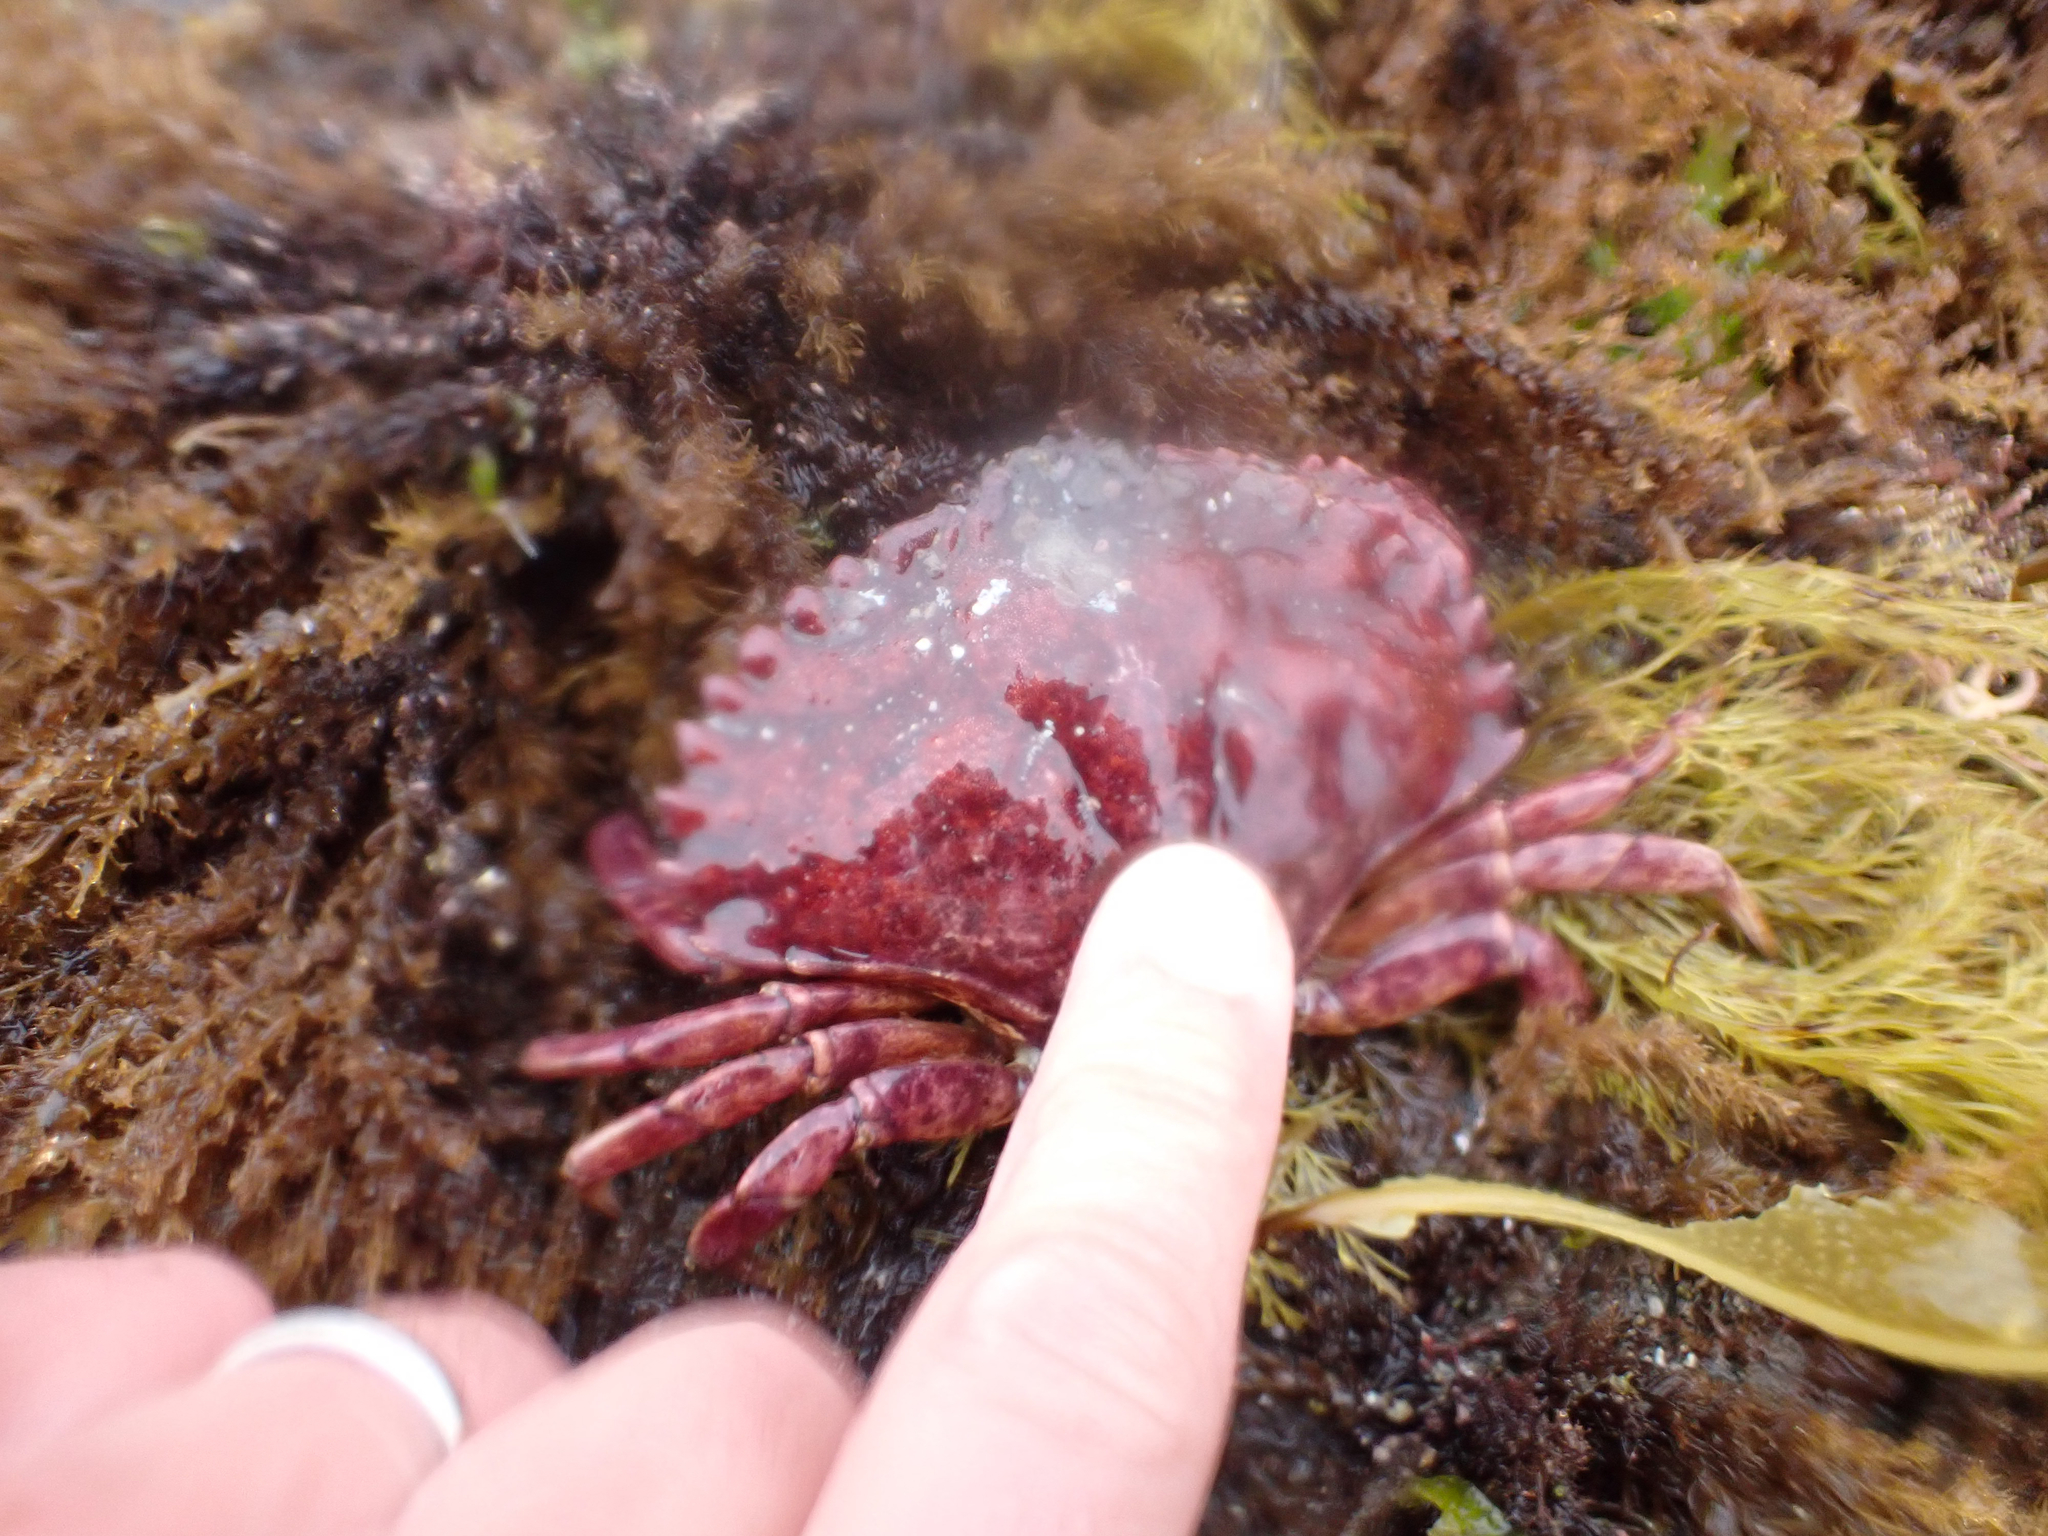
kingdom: Animalia
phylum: Arthropoda
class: Malacostraca
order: Decapoda
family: Cancridae
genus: Cancer
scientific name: Cancer productus
